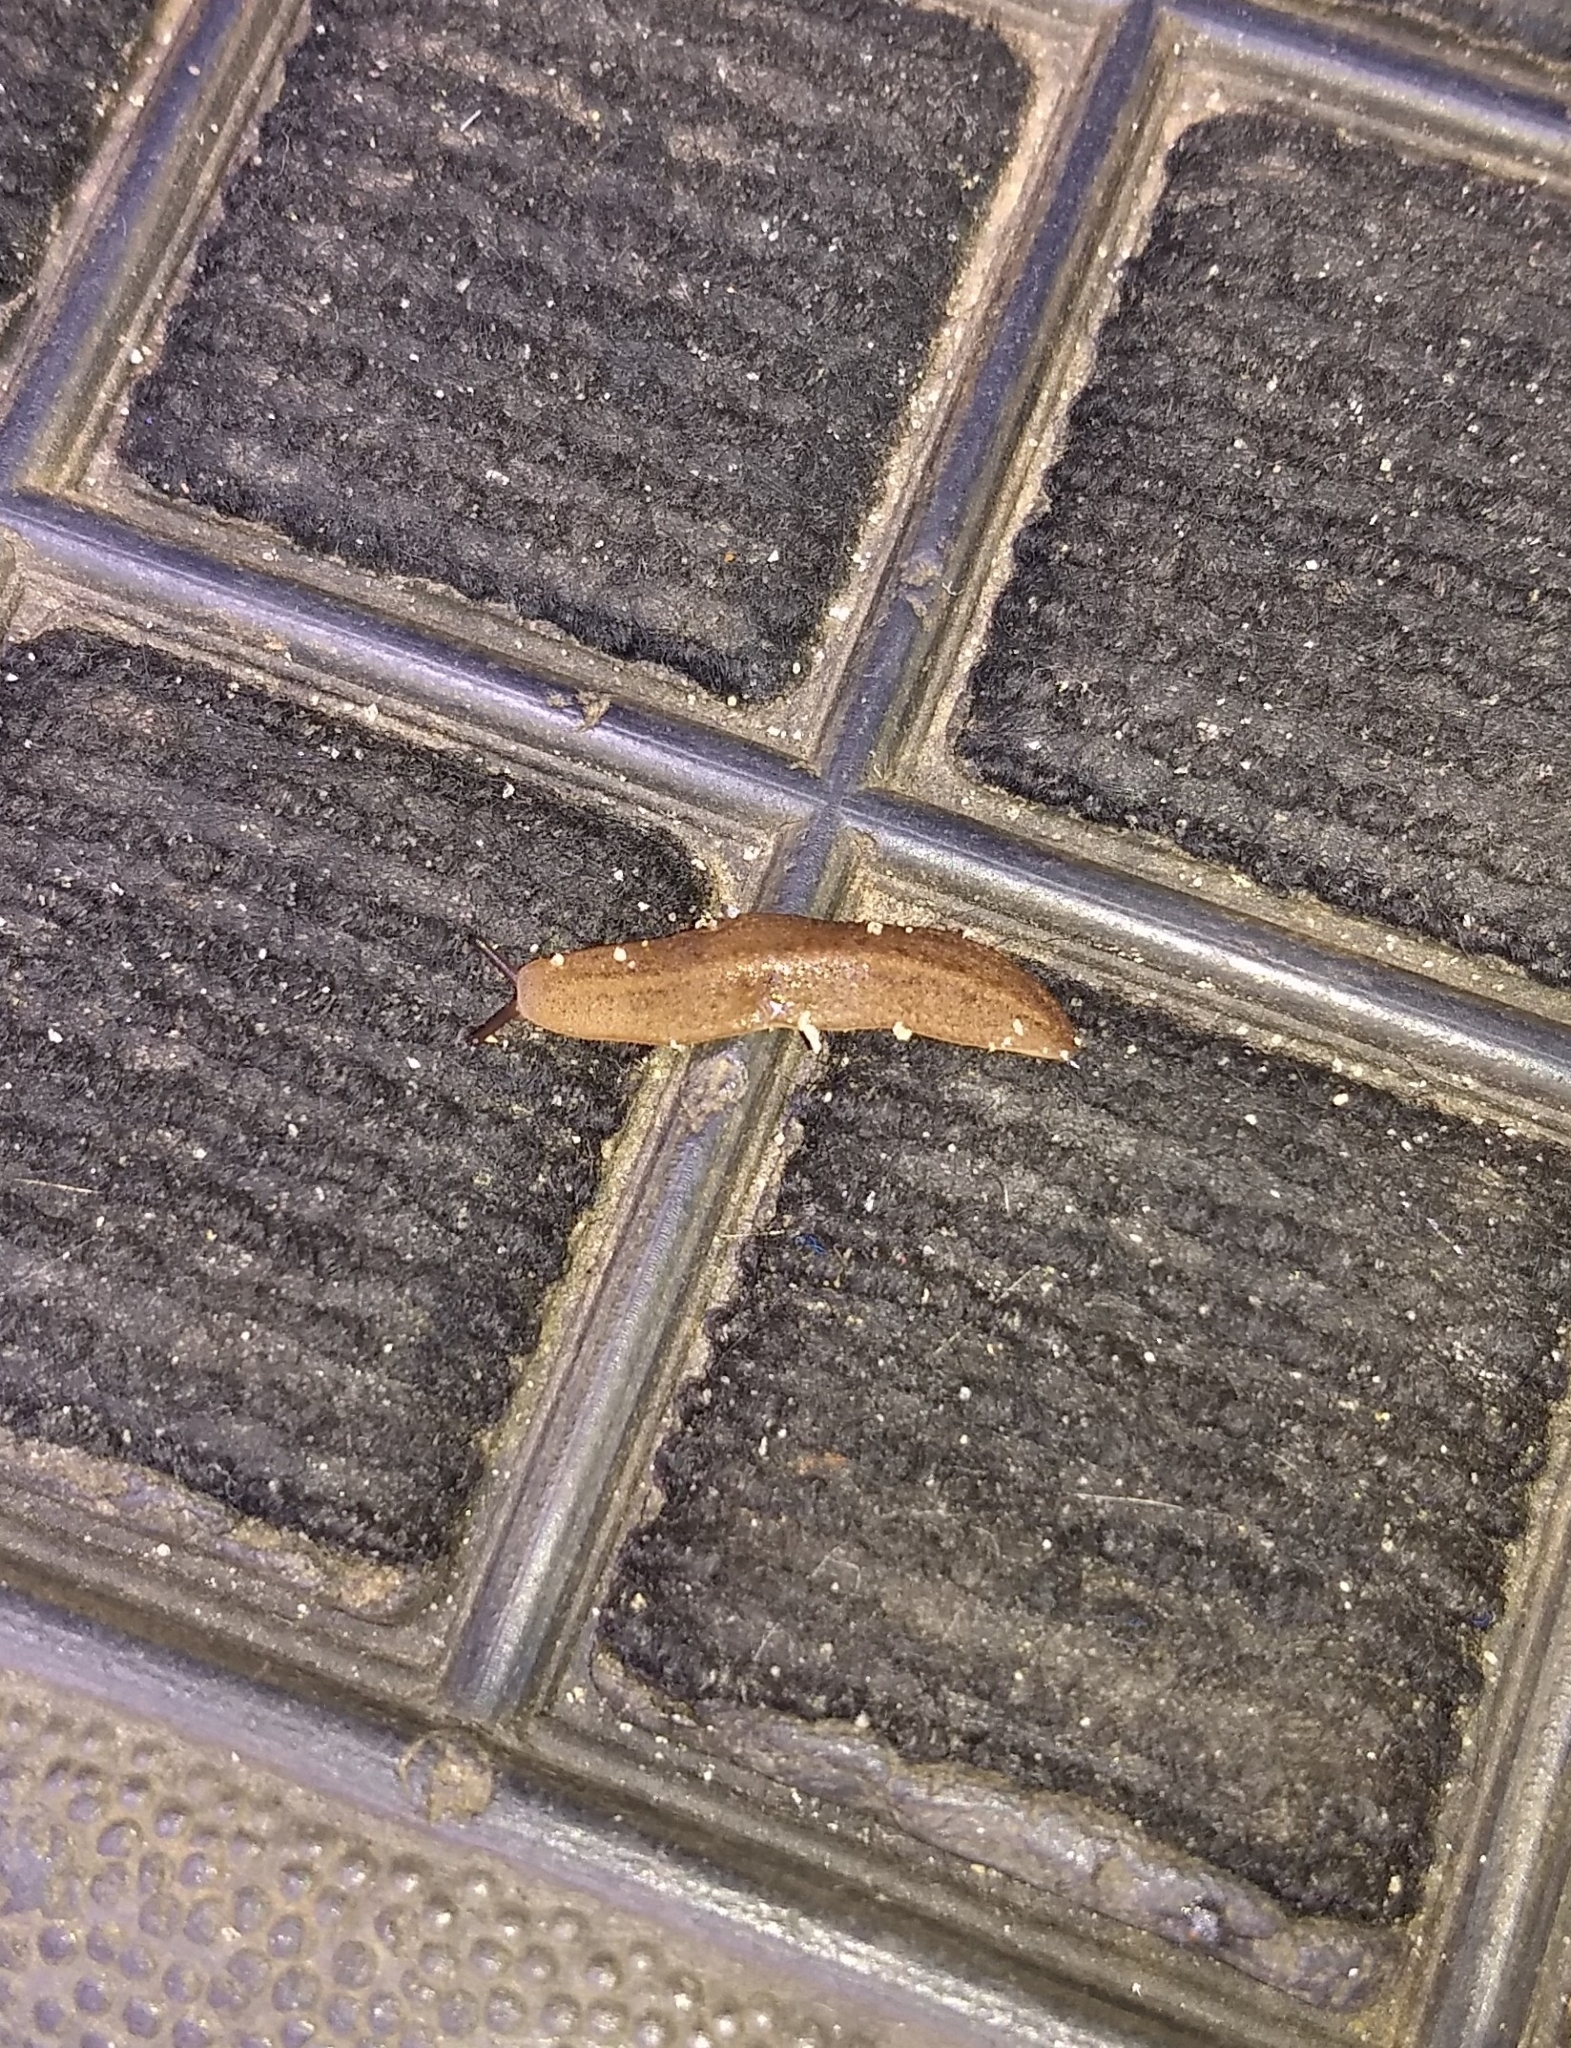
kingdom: Animalia
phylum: Mollusca
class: Gastropoda
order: Systellommatophora
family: Veronicellidae
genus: Laevicaulis
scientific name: Laevicaulis alte
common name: Tropical leatherleaf
